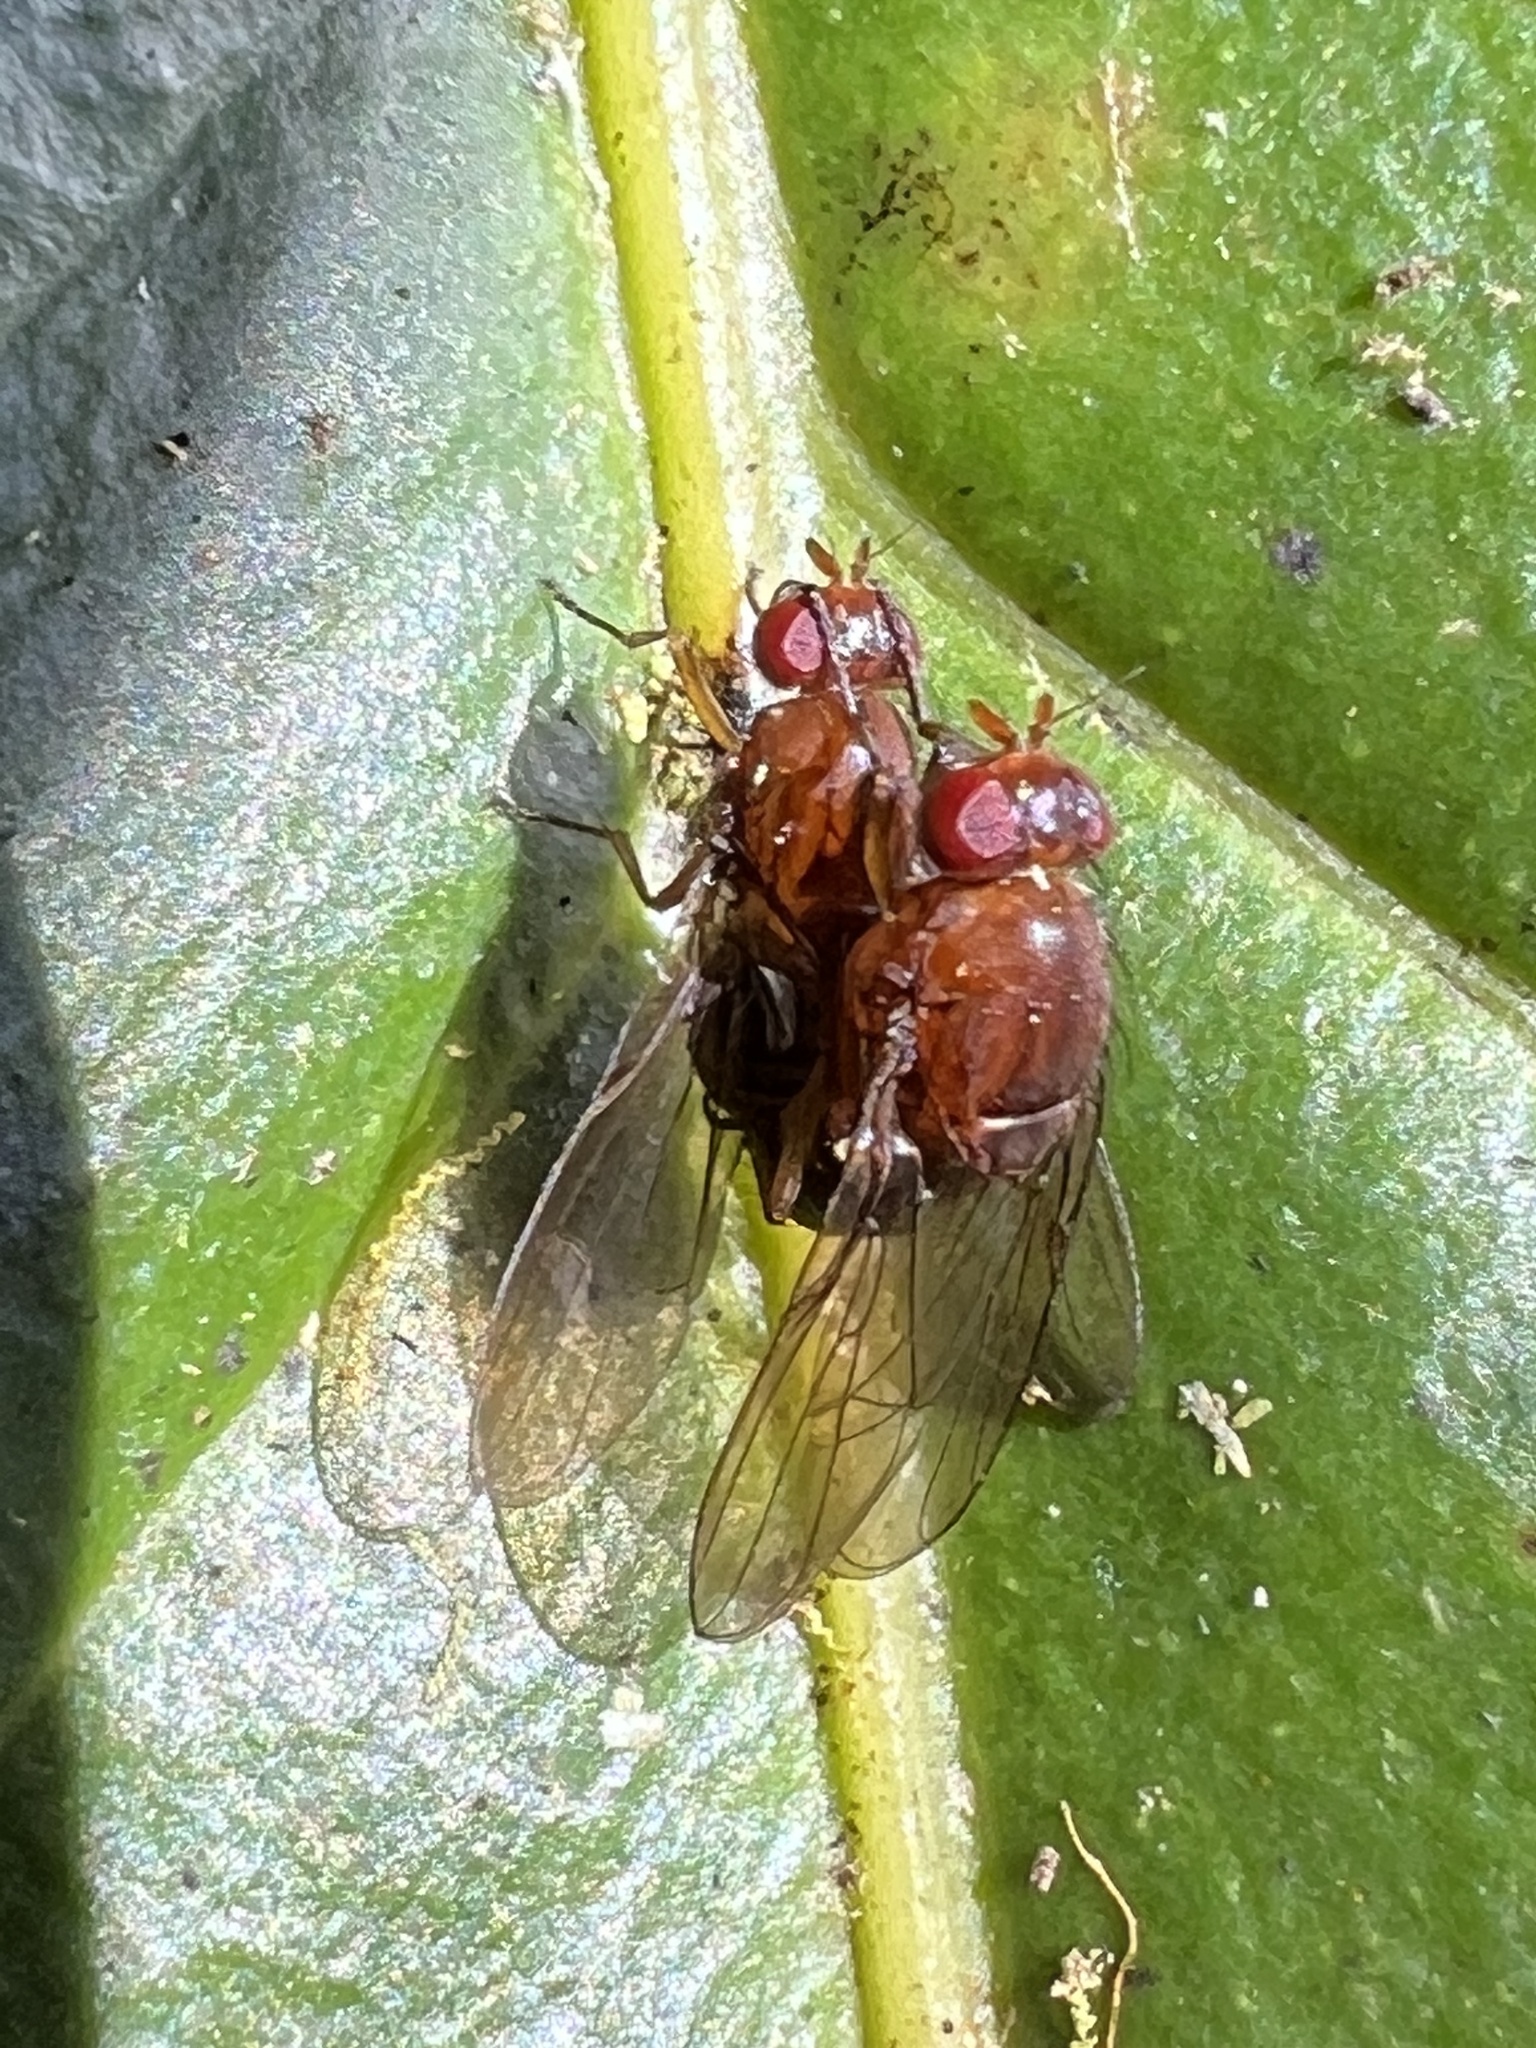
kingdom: Animalia
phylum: Arthropoda
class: Insecta
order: Diptera
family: Lauxaniidae
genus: Griphoneura
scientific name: Griphoneura ferruginea
